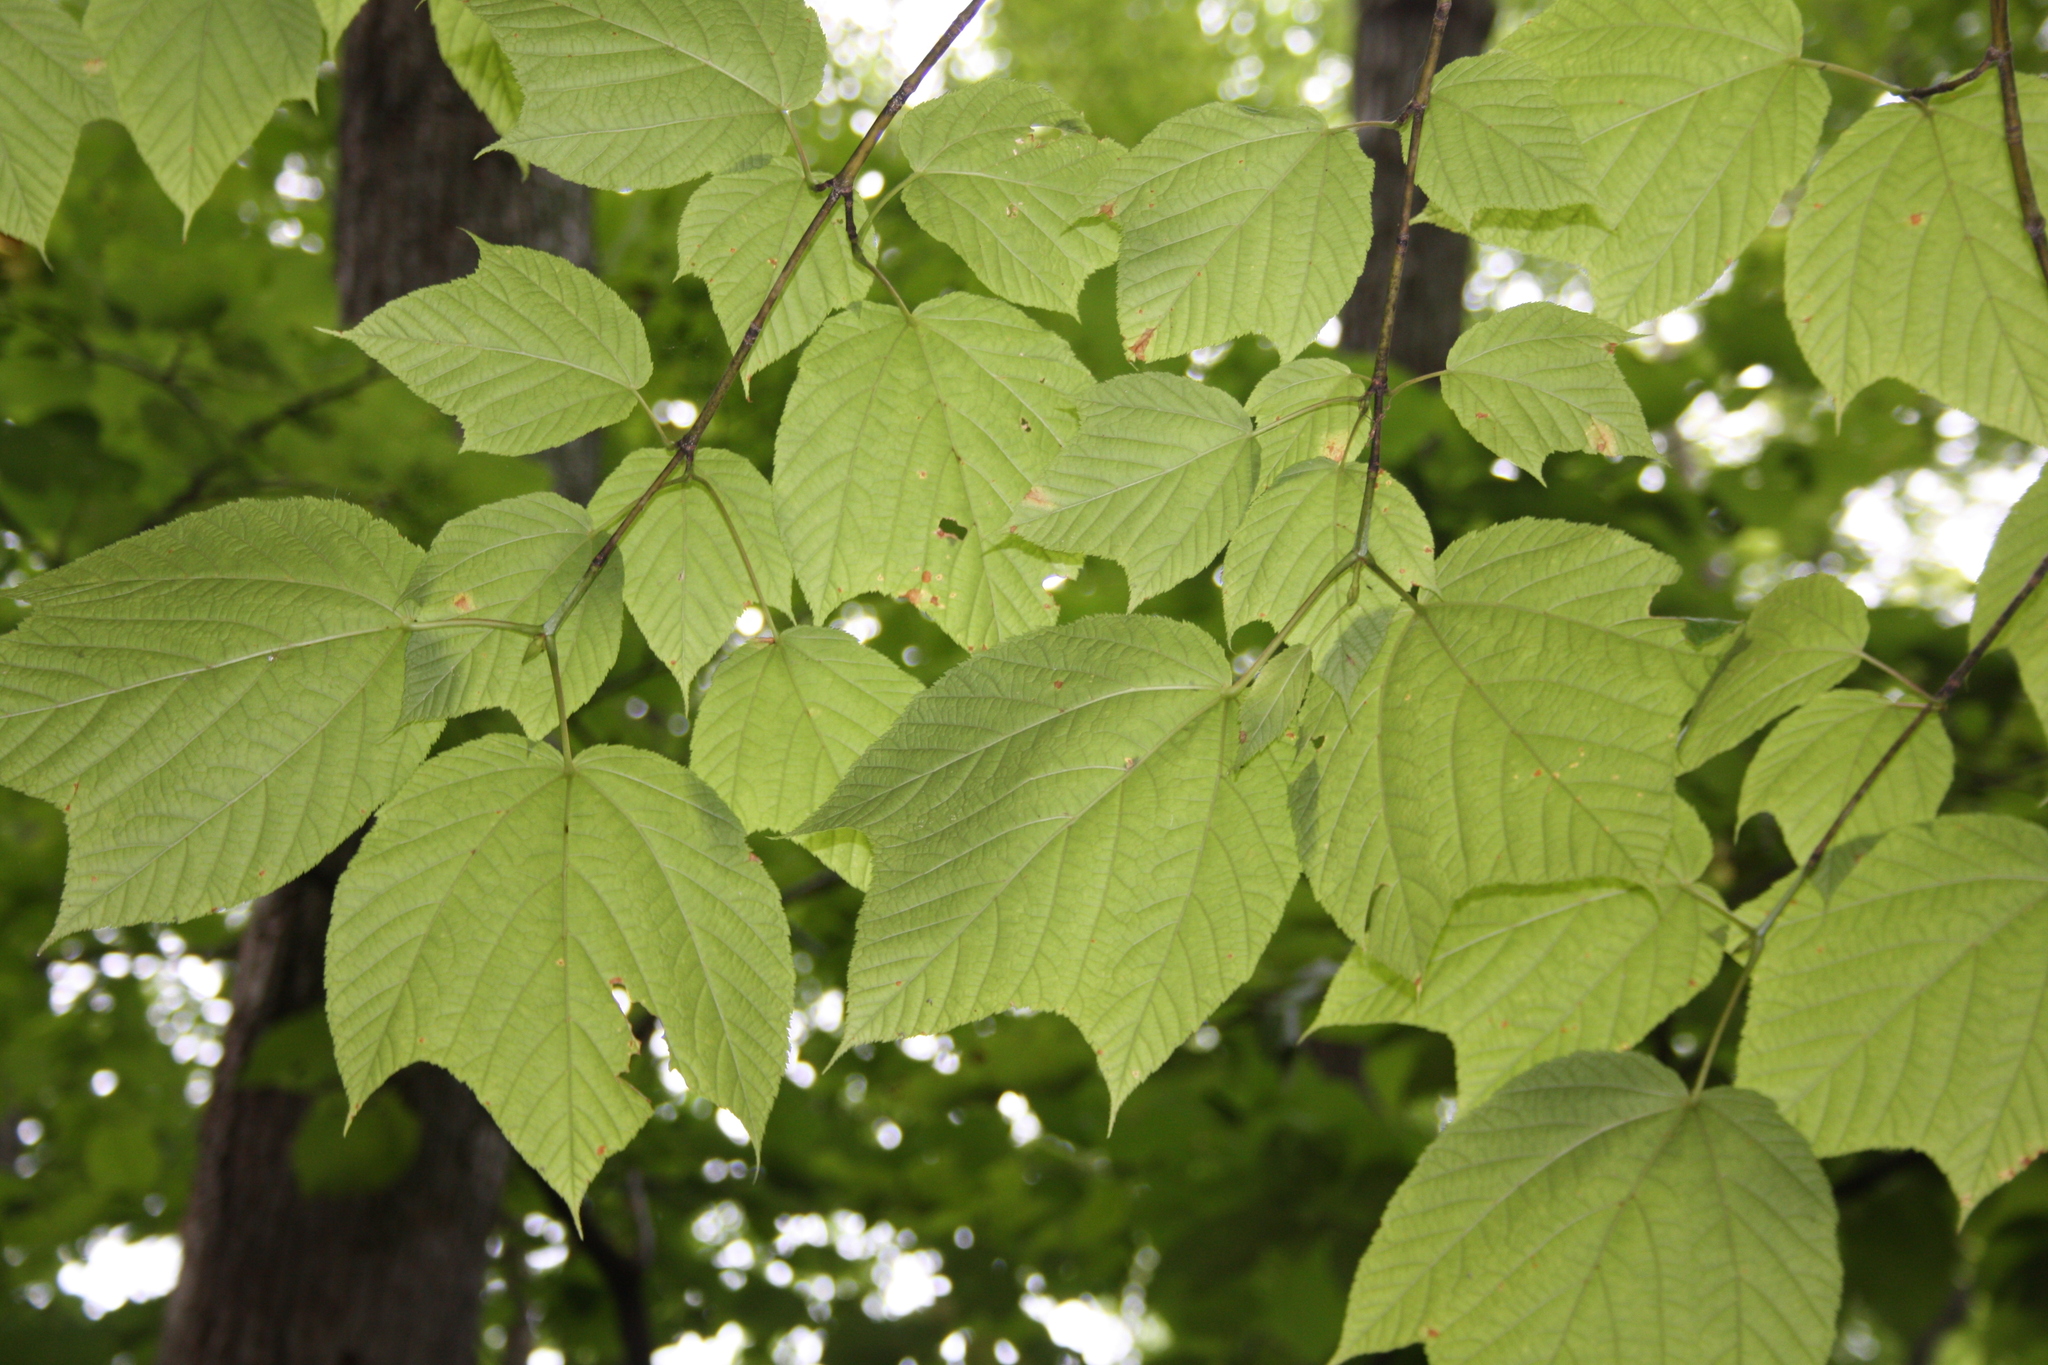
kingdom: Plantae
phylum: Tracheophyta
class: Magnoliopsida
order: Sapindales
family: Sapindaceae
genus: Acer
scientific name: Acer pensylvanicum
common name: Moosewood
